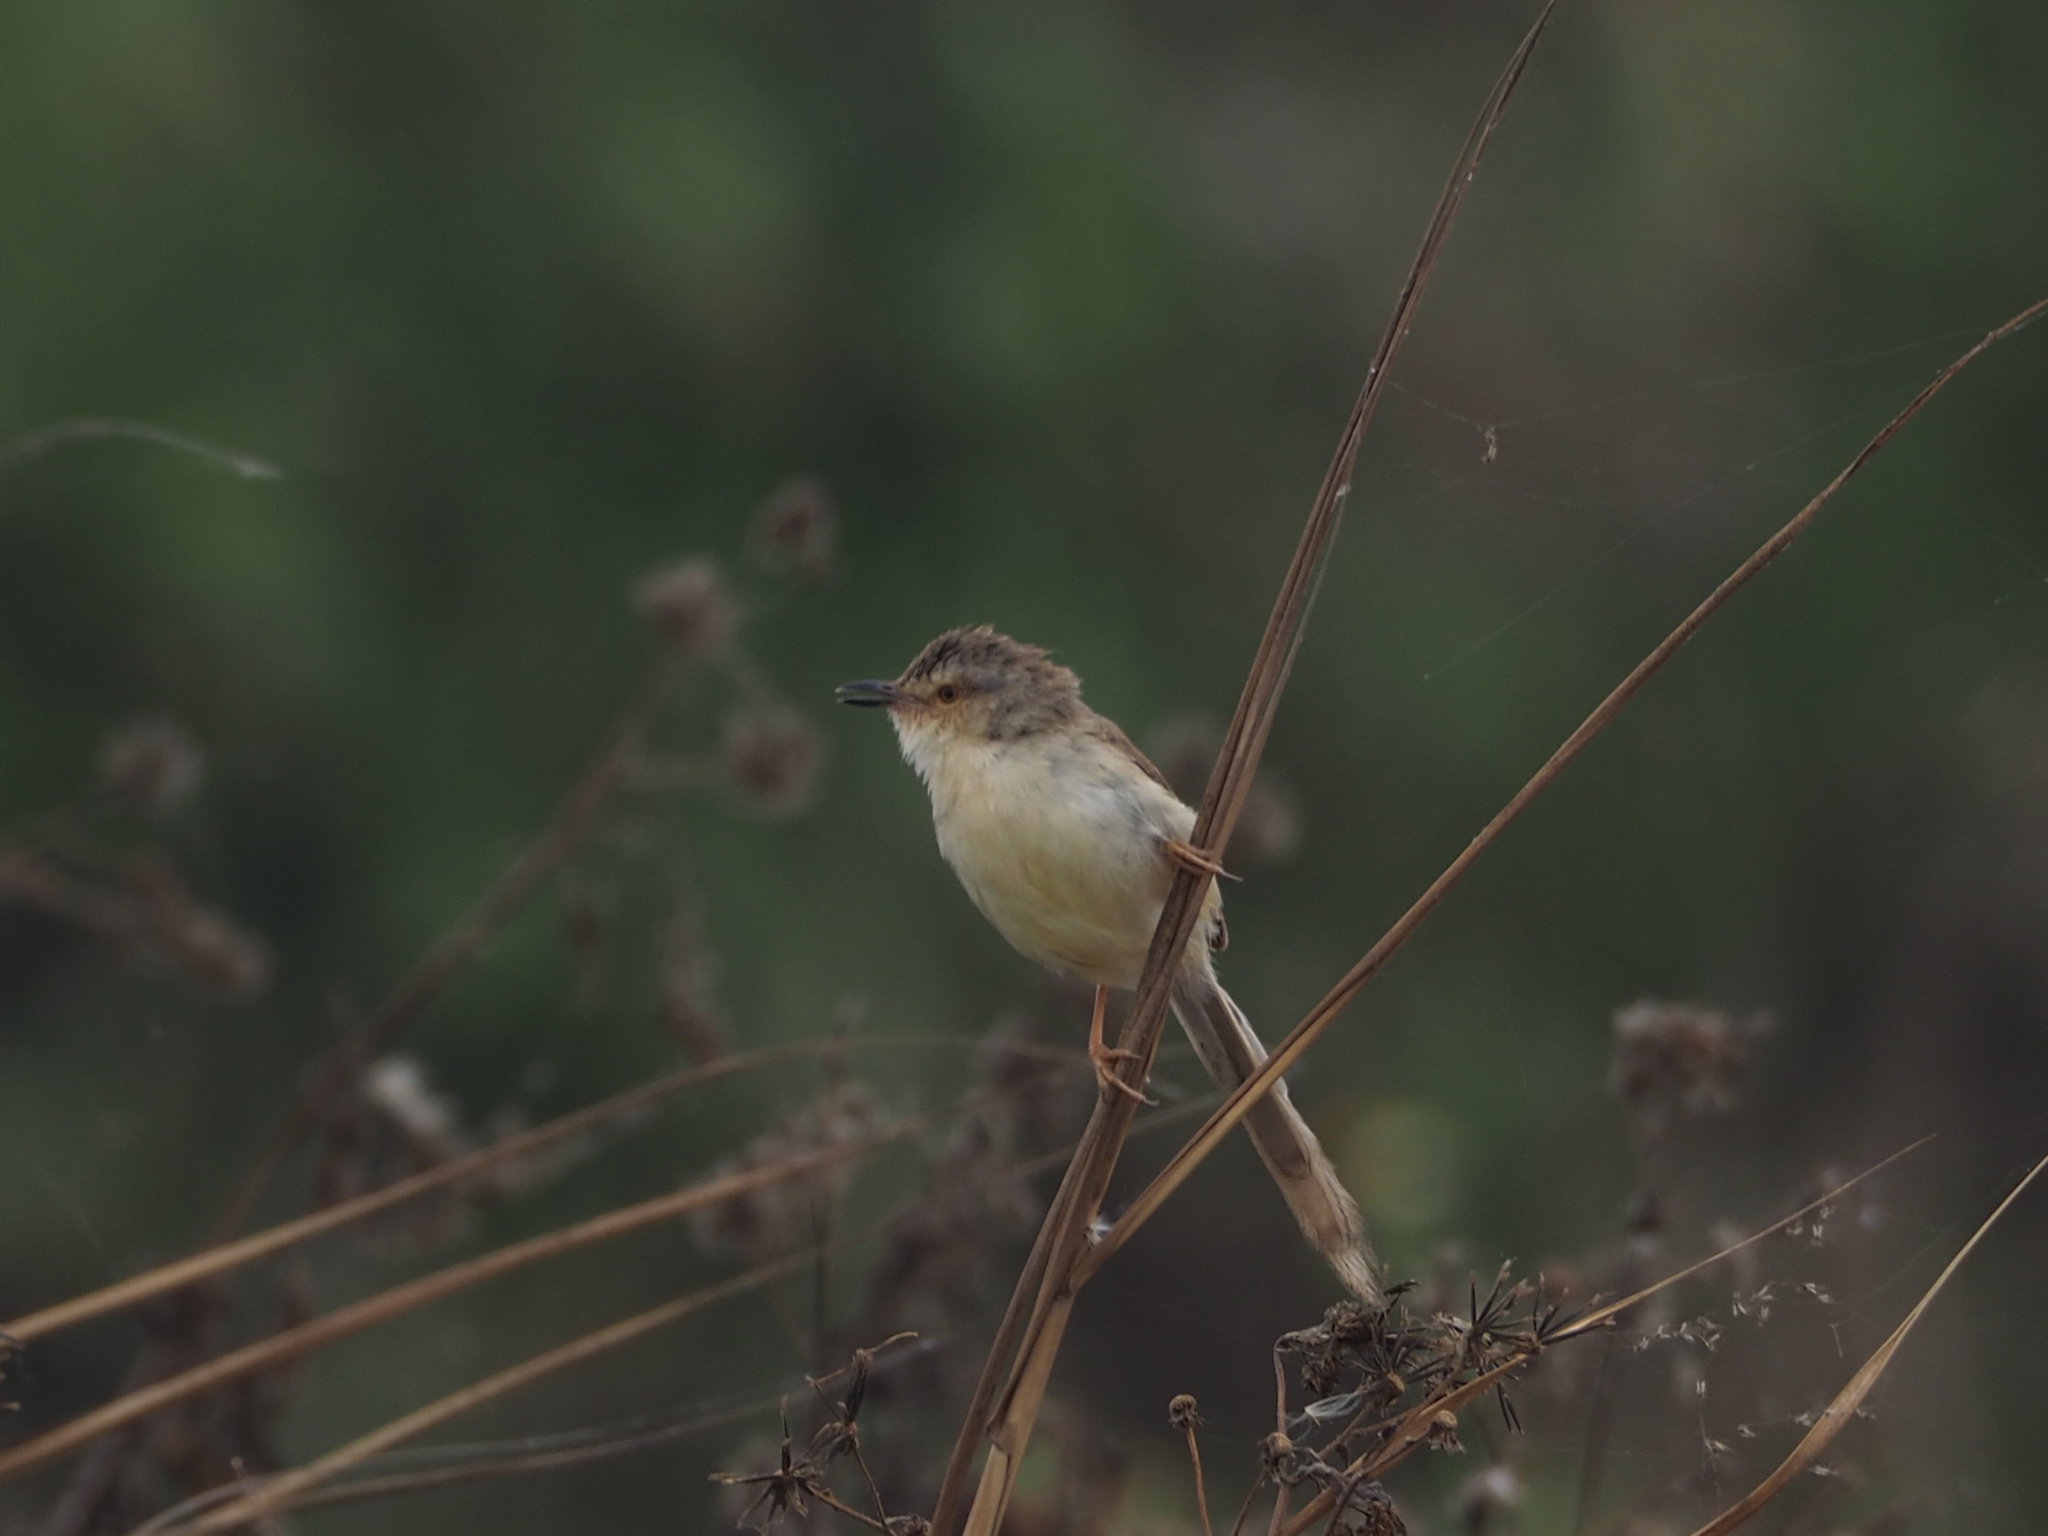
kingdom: Animalia
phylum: Chordata
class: Aves
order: Passeriformes
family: Cisticolidae
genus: Prinia
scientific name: Prinia inornata
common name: Plain prinia
